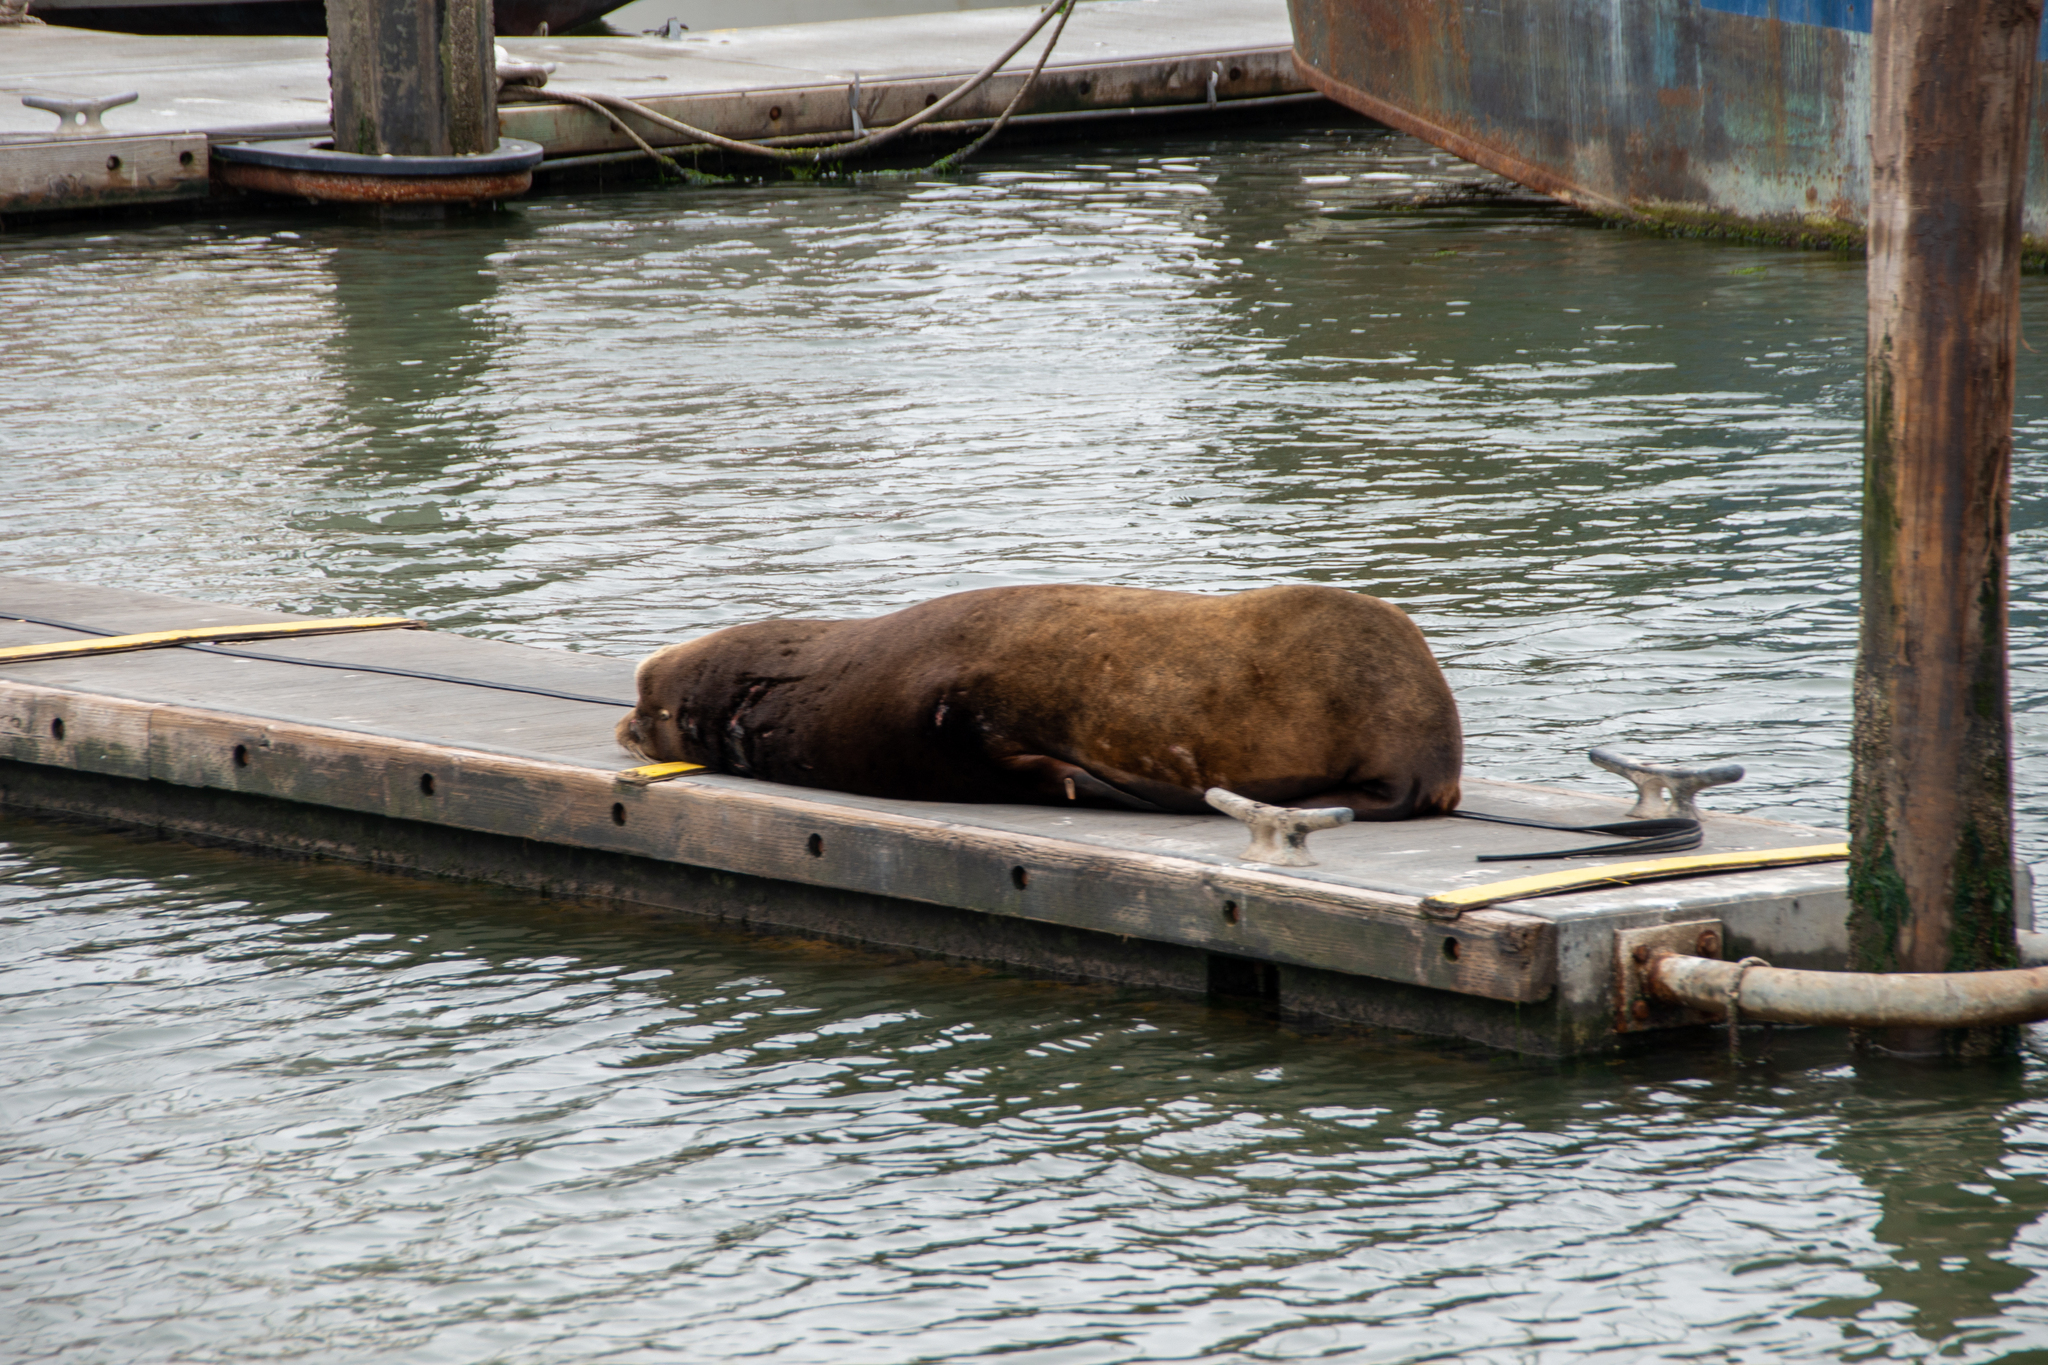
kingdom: Animalia
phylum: Chordata
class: Mammalia
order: Carnivora
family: Otariidae
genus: Zalophus
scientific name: Zalophus californianus
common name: California sea lion
